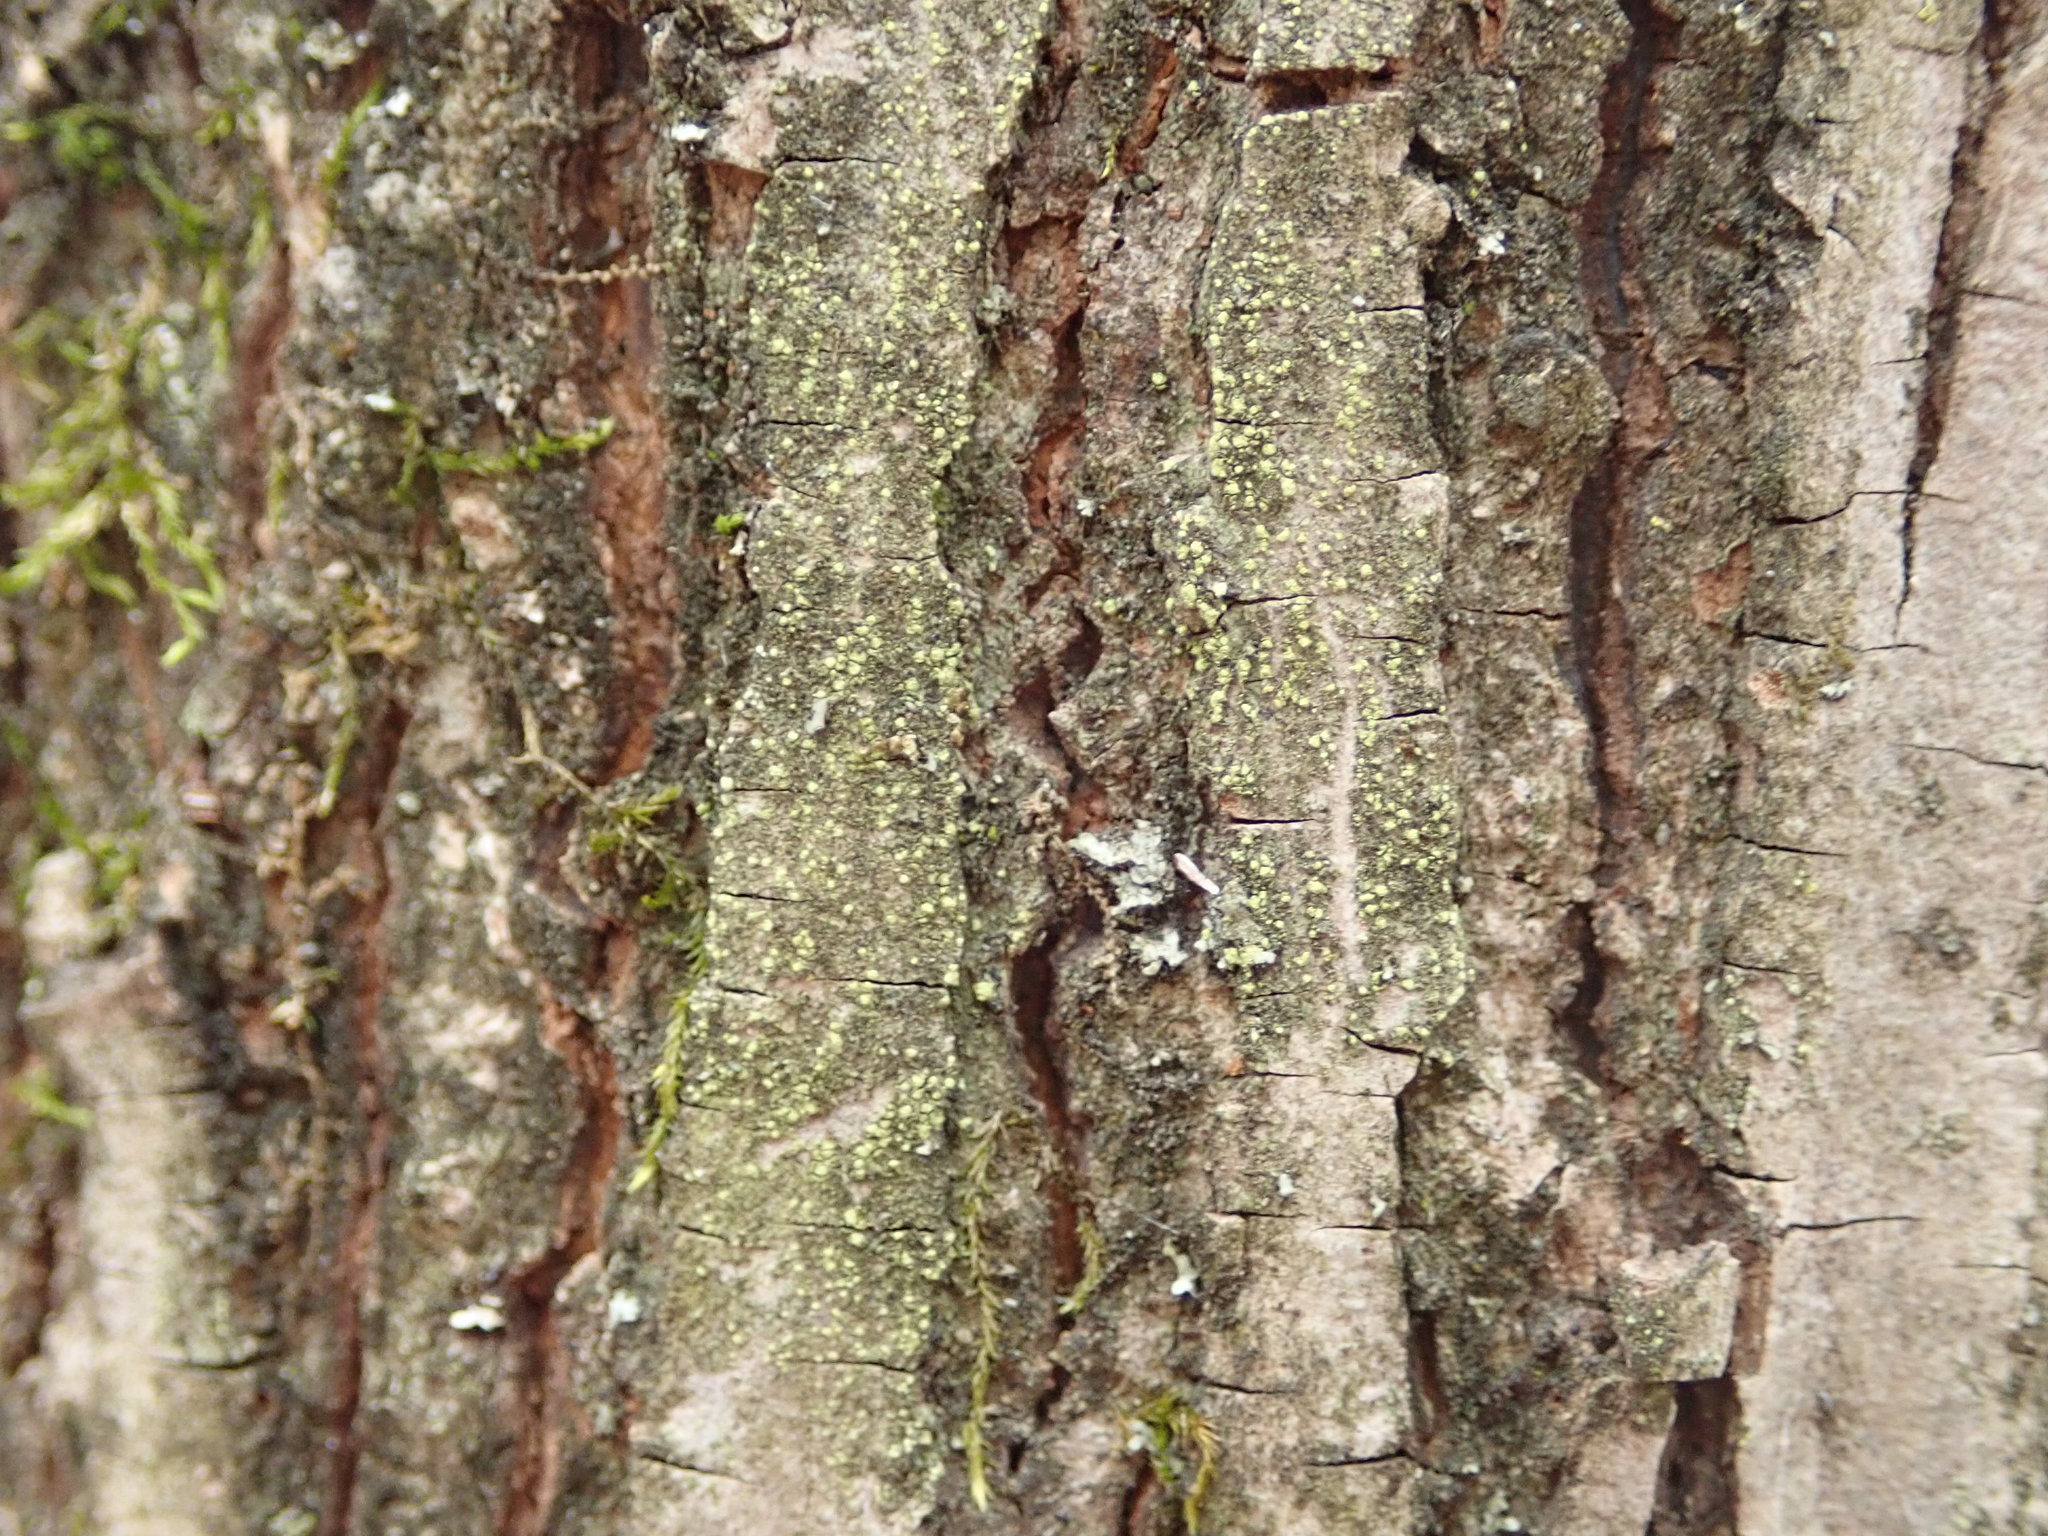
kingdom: Fungi
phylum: Ascomycota
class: Lecanoromycetes
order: Lecanorales
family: Ramalinaceae
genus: Lecania
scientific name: Lecania croatica
